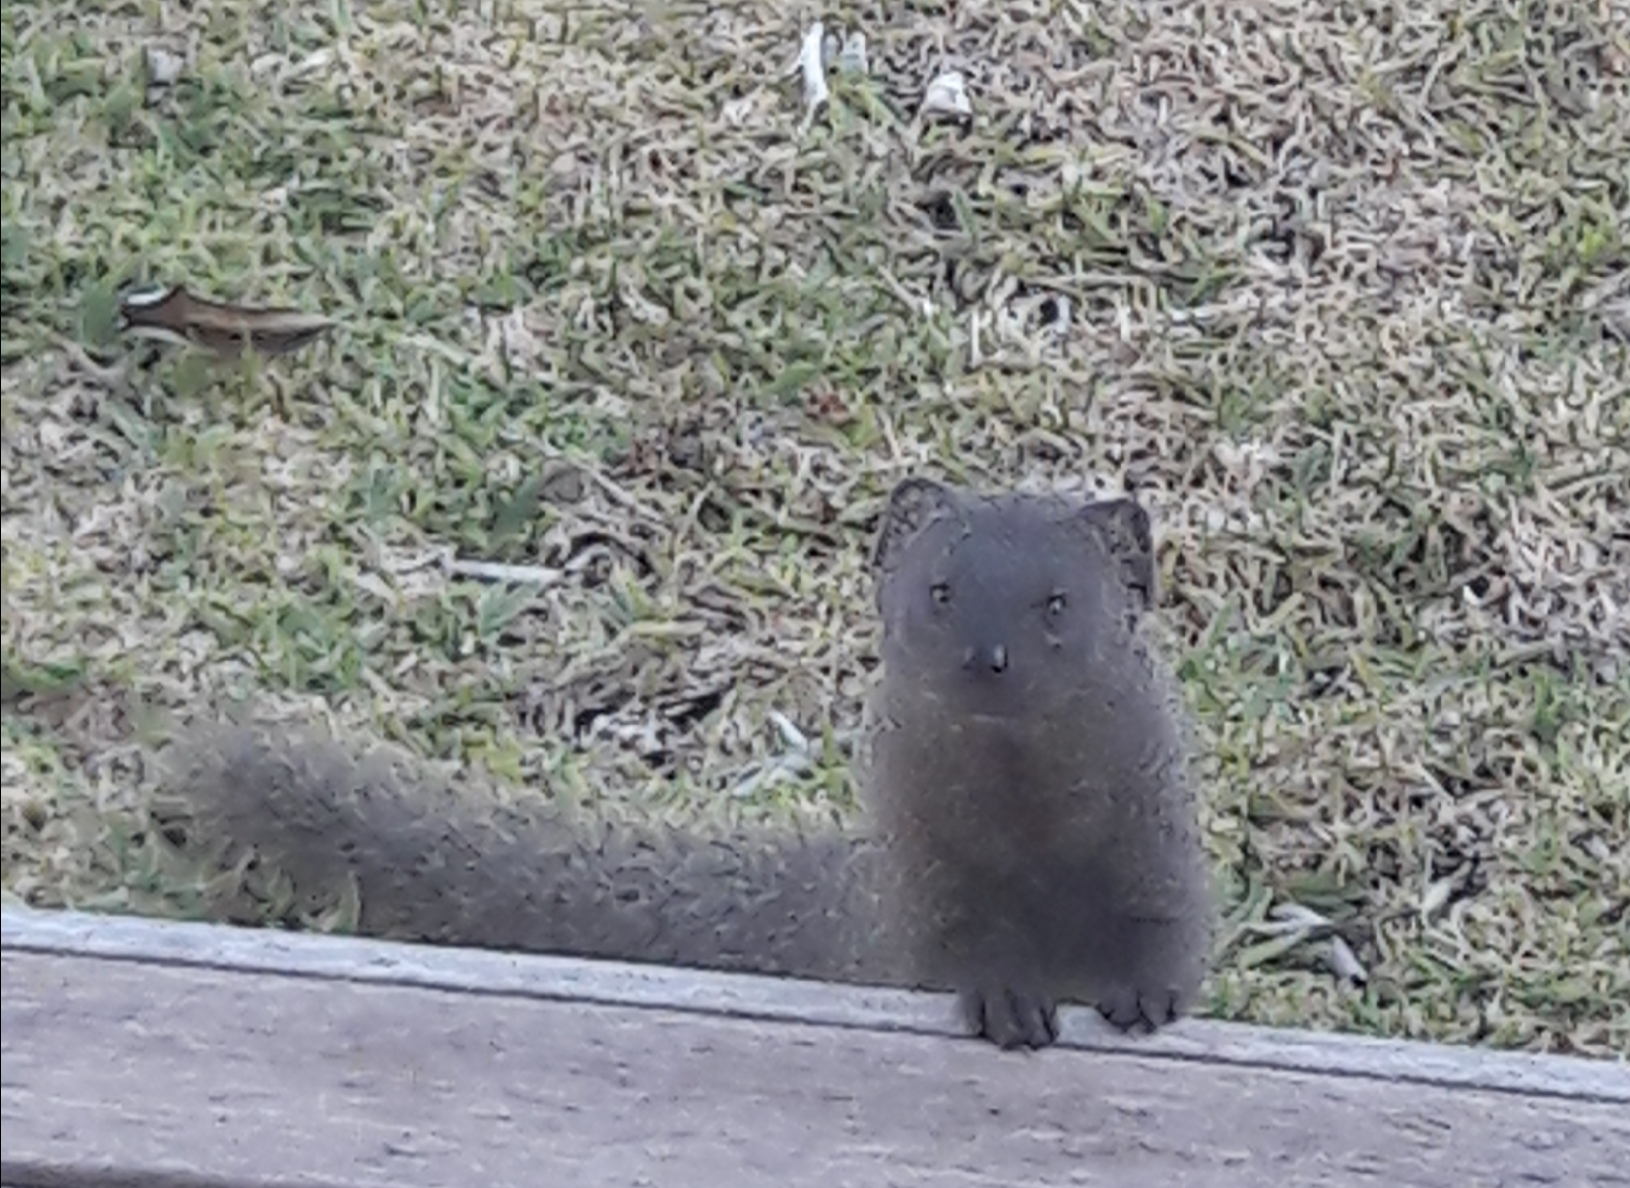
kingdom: Animalia
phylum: Chordata
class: Mammalia
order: Carnivora
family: Herpestidae
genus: Galerella
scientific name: Galerella pulverulenta
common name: Cape gray mongoose
